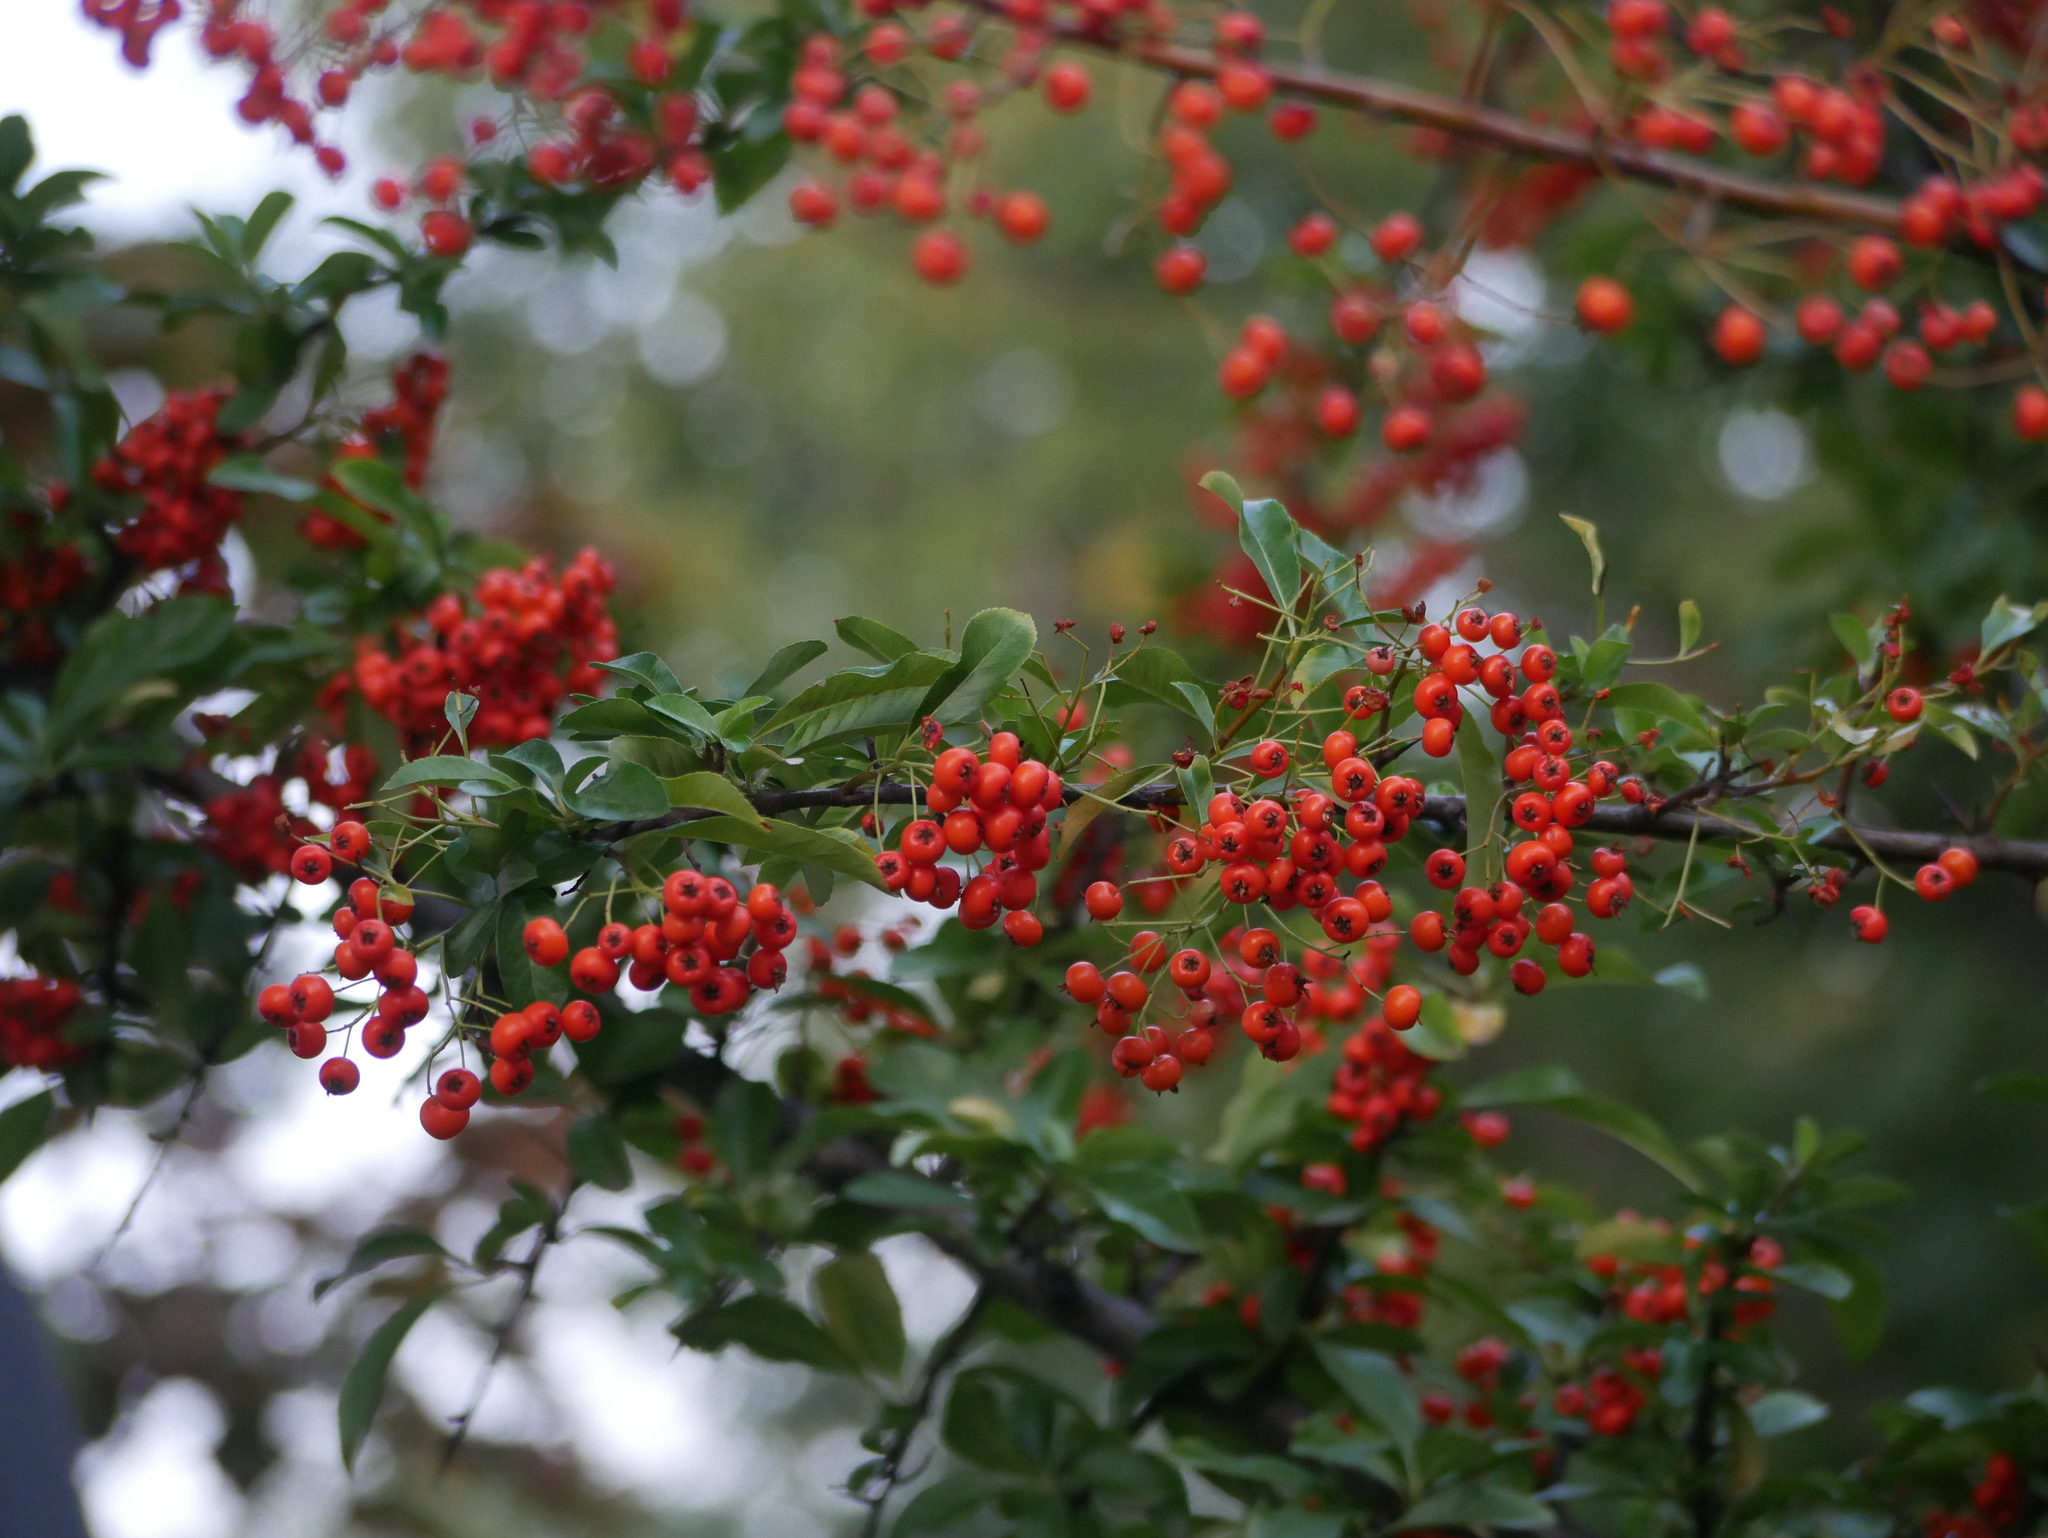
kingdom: Plantae
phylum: Tracheophyta
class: Magnoliopsida
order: Rosales
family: Rosaceae
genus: Pyracantha
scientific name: Pyracantha coccinea
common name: Firethorn
